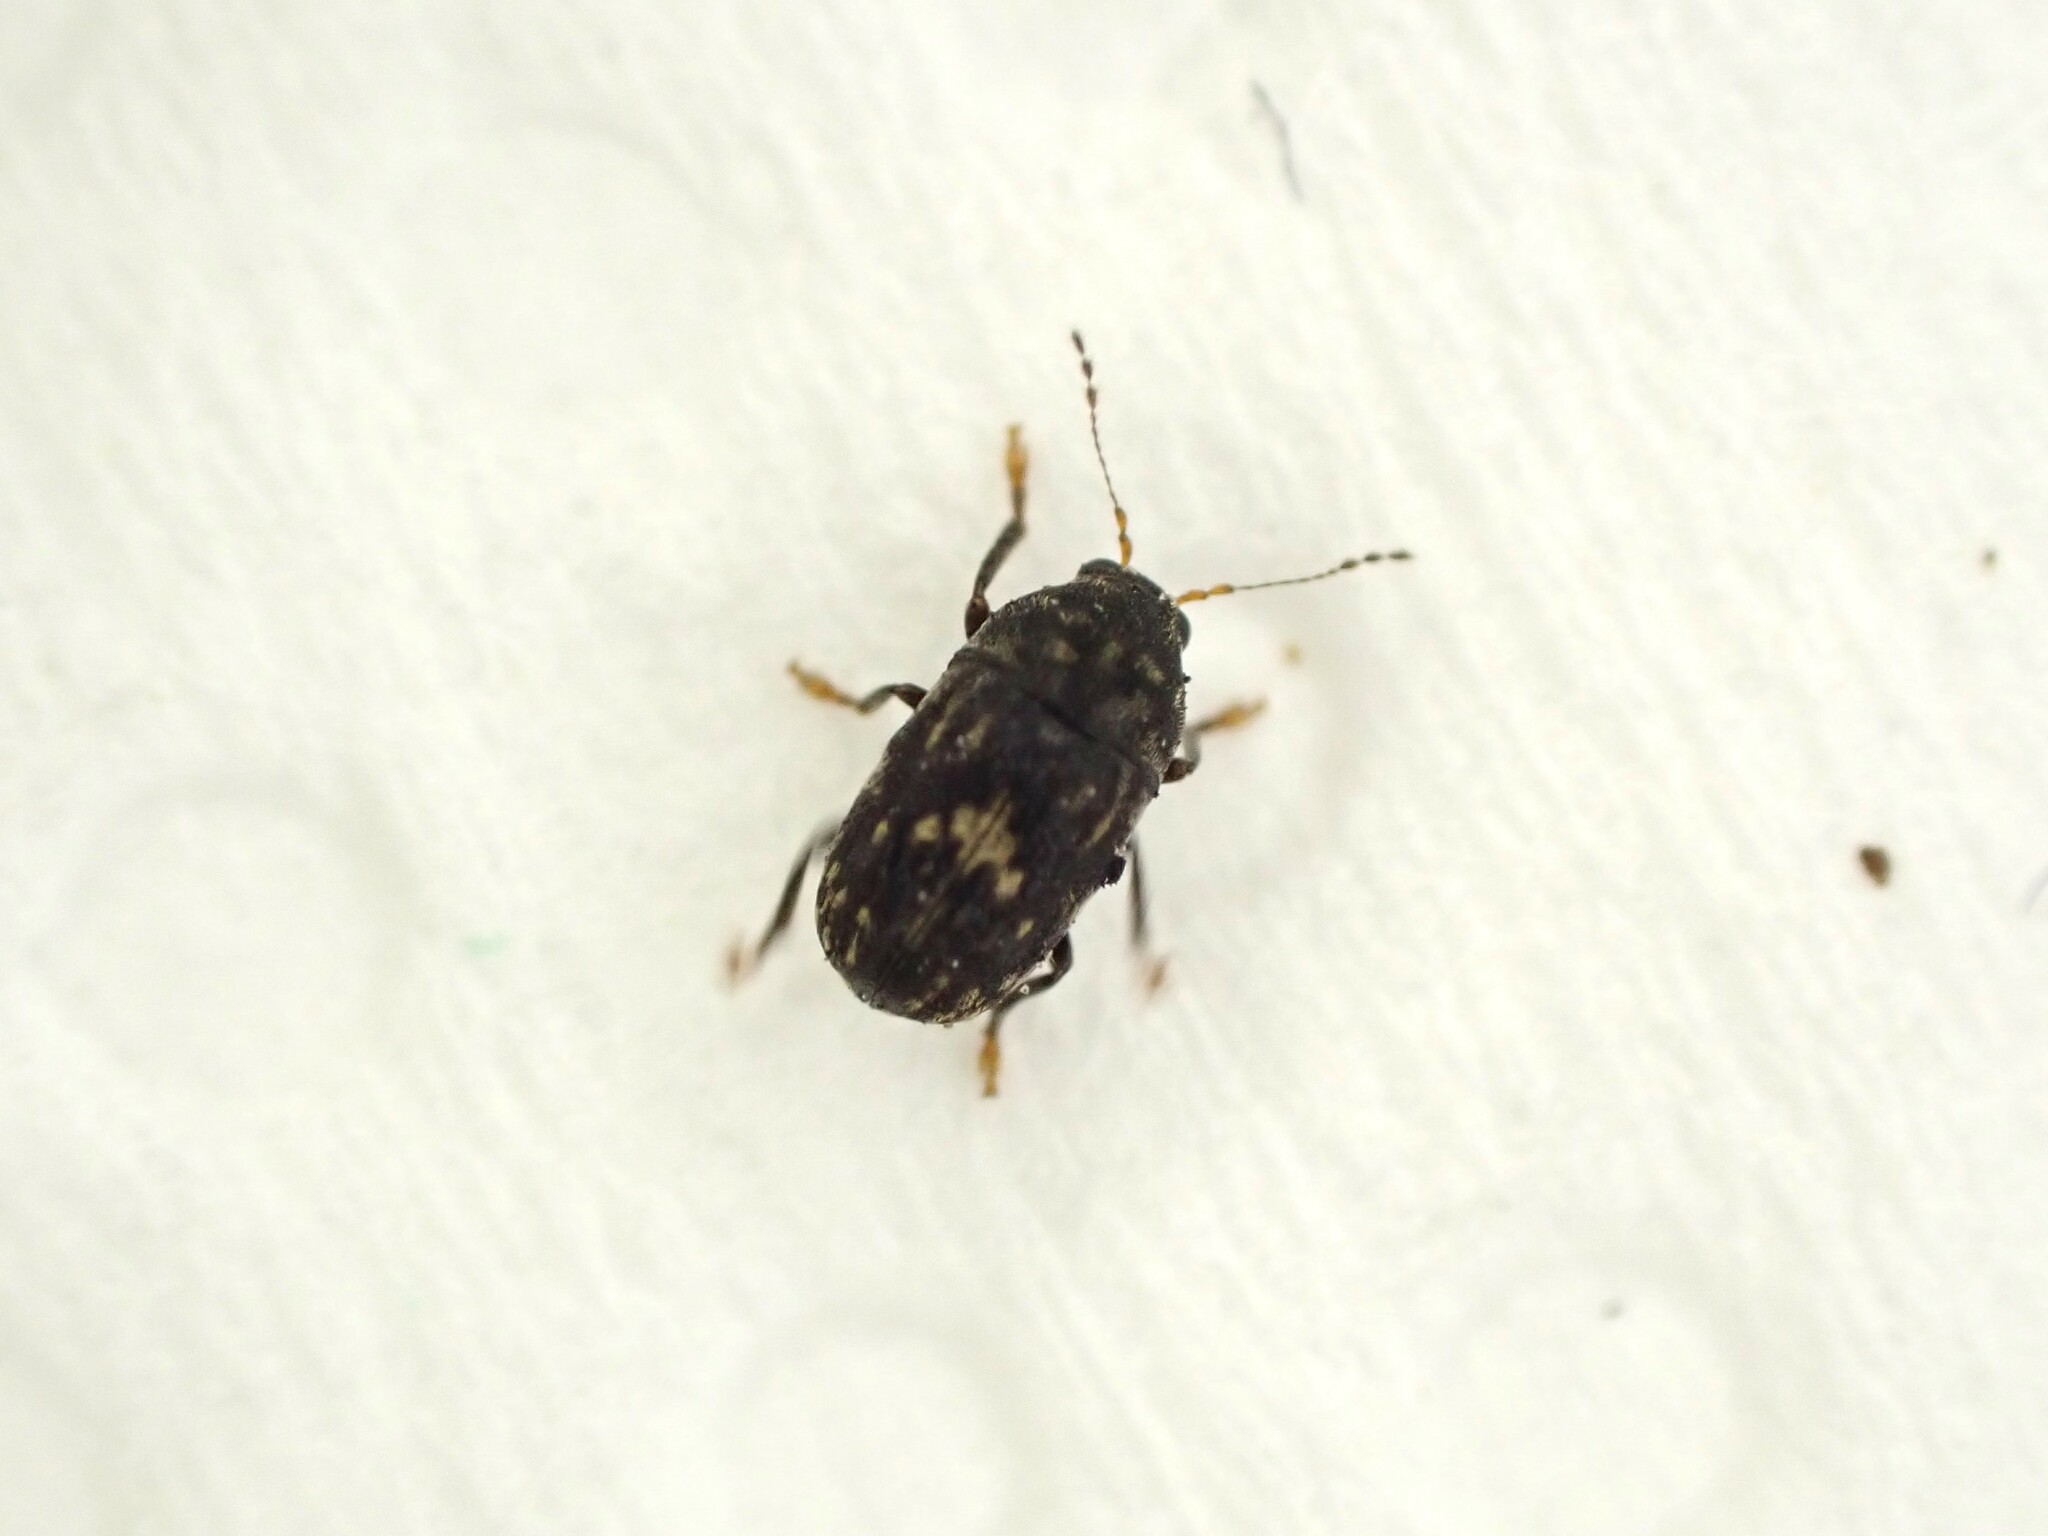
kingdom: Animalia
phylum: Arthropoda
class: Insecta
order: Coleoptera
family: Anthribidae
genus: Notochoragus
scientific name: Notochoragus
